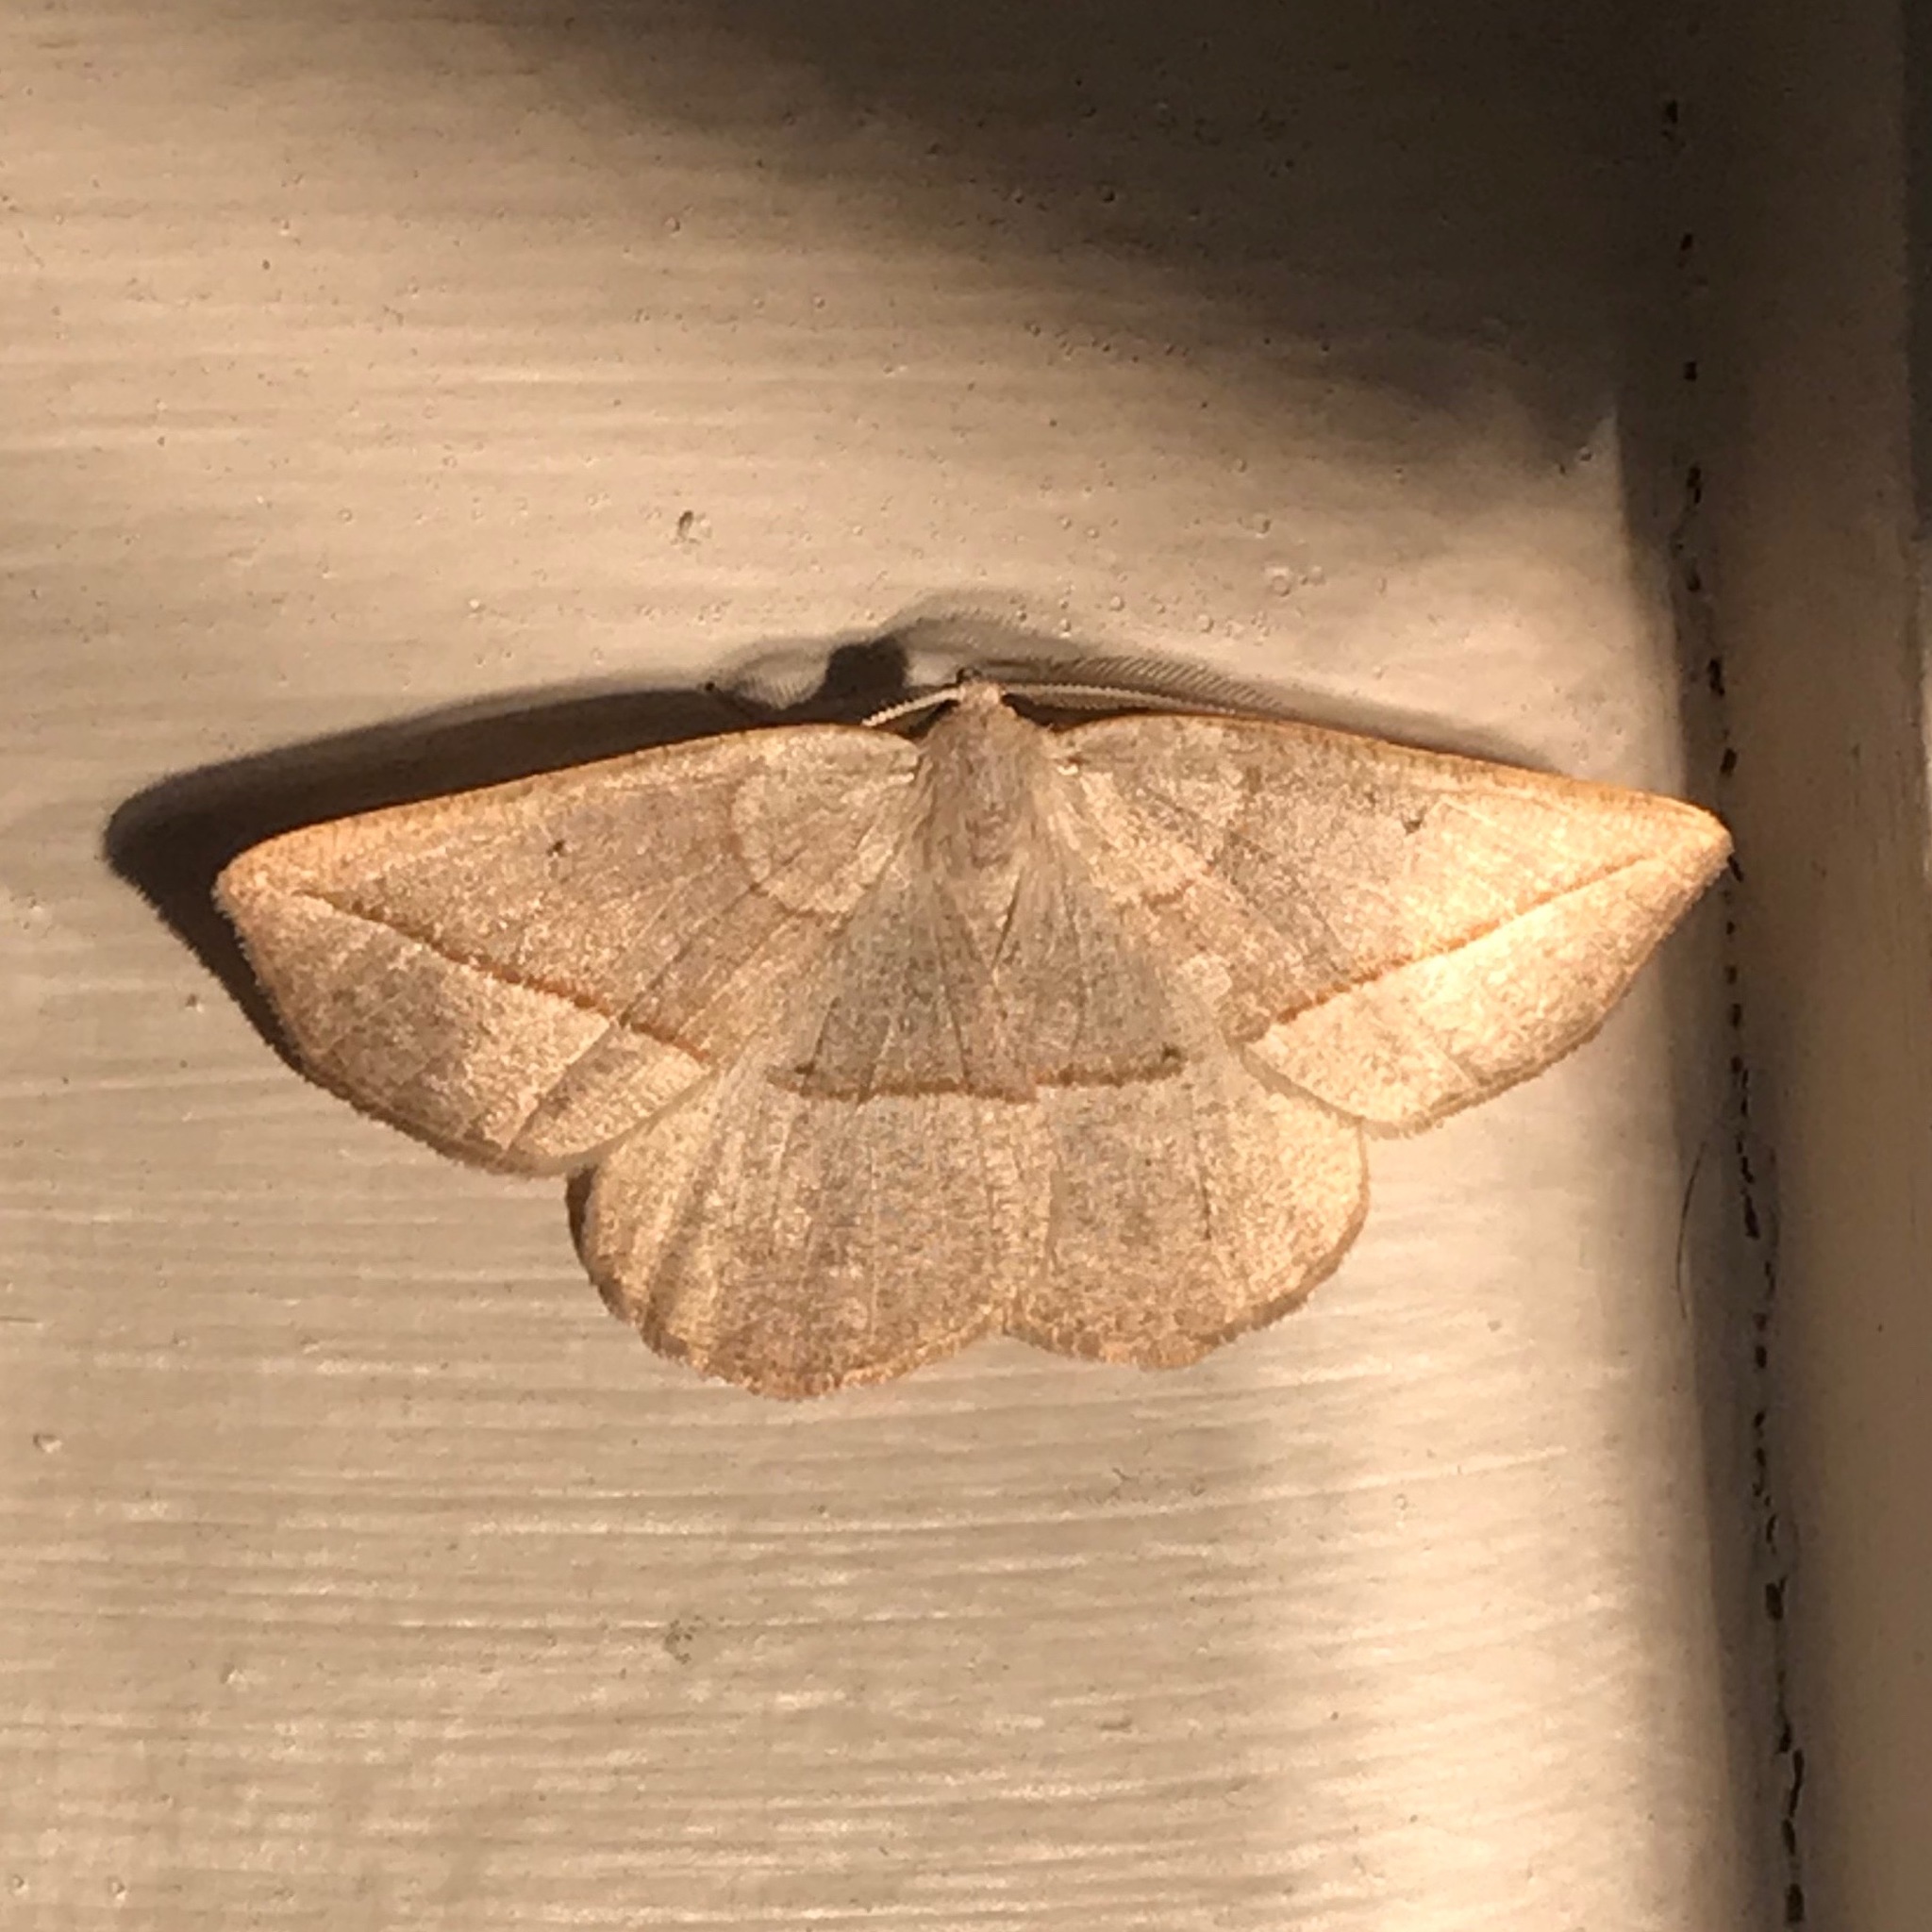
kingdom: Animalia
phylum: Arthropoda
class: Insecta
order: Lepidoptera
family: Geometridae
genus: Eusarca
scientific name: Eusarca confusaria
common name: Confused eusarca
